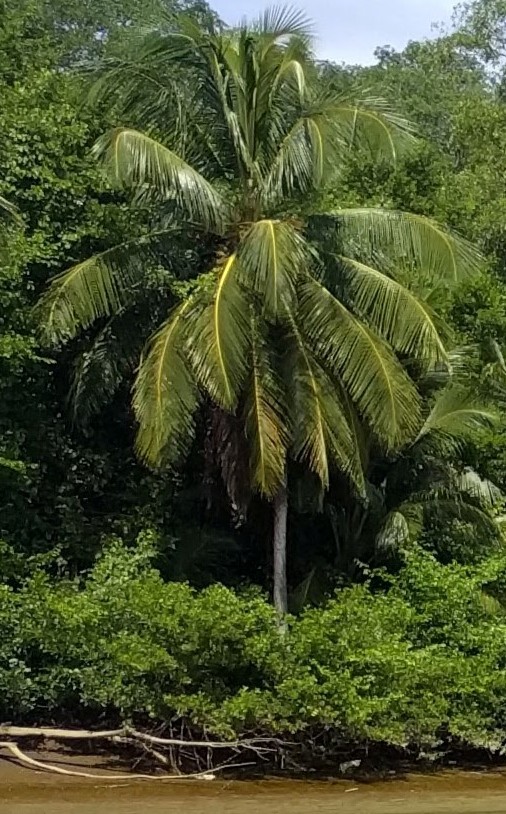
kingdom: Plantae
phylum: Tracheophyta
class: Liliopsida
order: Arecales
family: Arecaceae
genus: Cocos
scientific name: Cocos nucifera
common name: Coconut palm
